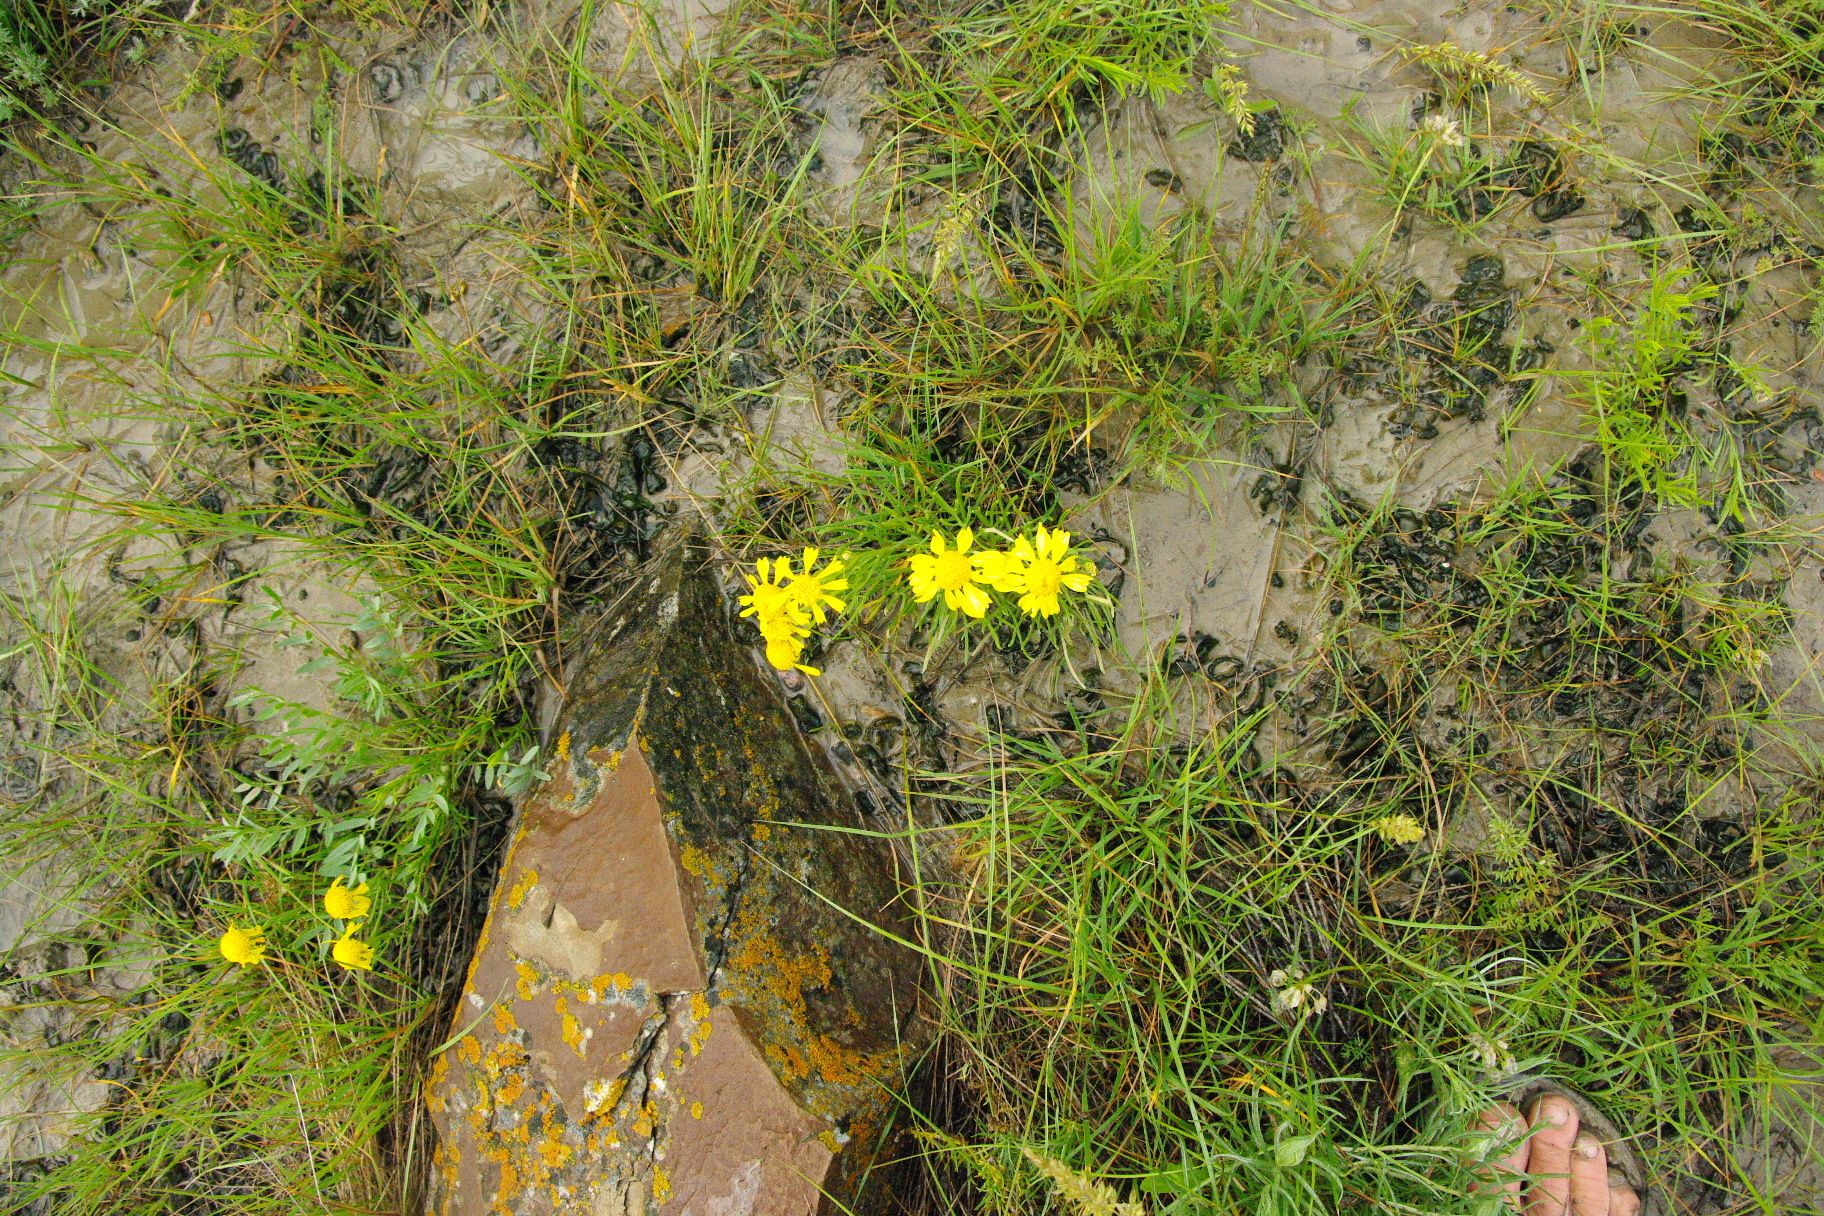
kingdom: Plantae
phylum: Tracheophyta
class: Magnoliopsida
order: Asterales
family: Asteraceae
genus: Hymenoxys
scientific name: Hymenoxys richardsonii
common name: Pingue rubberweed
